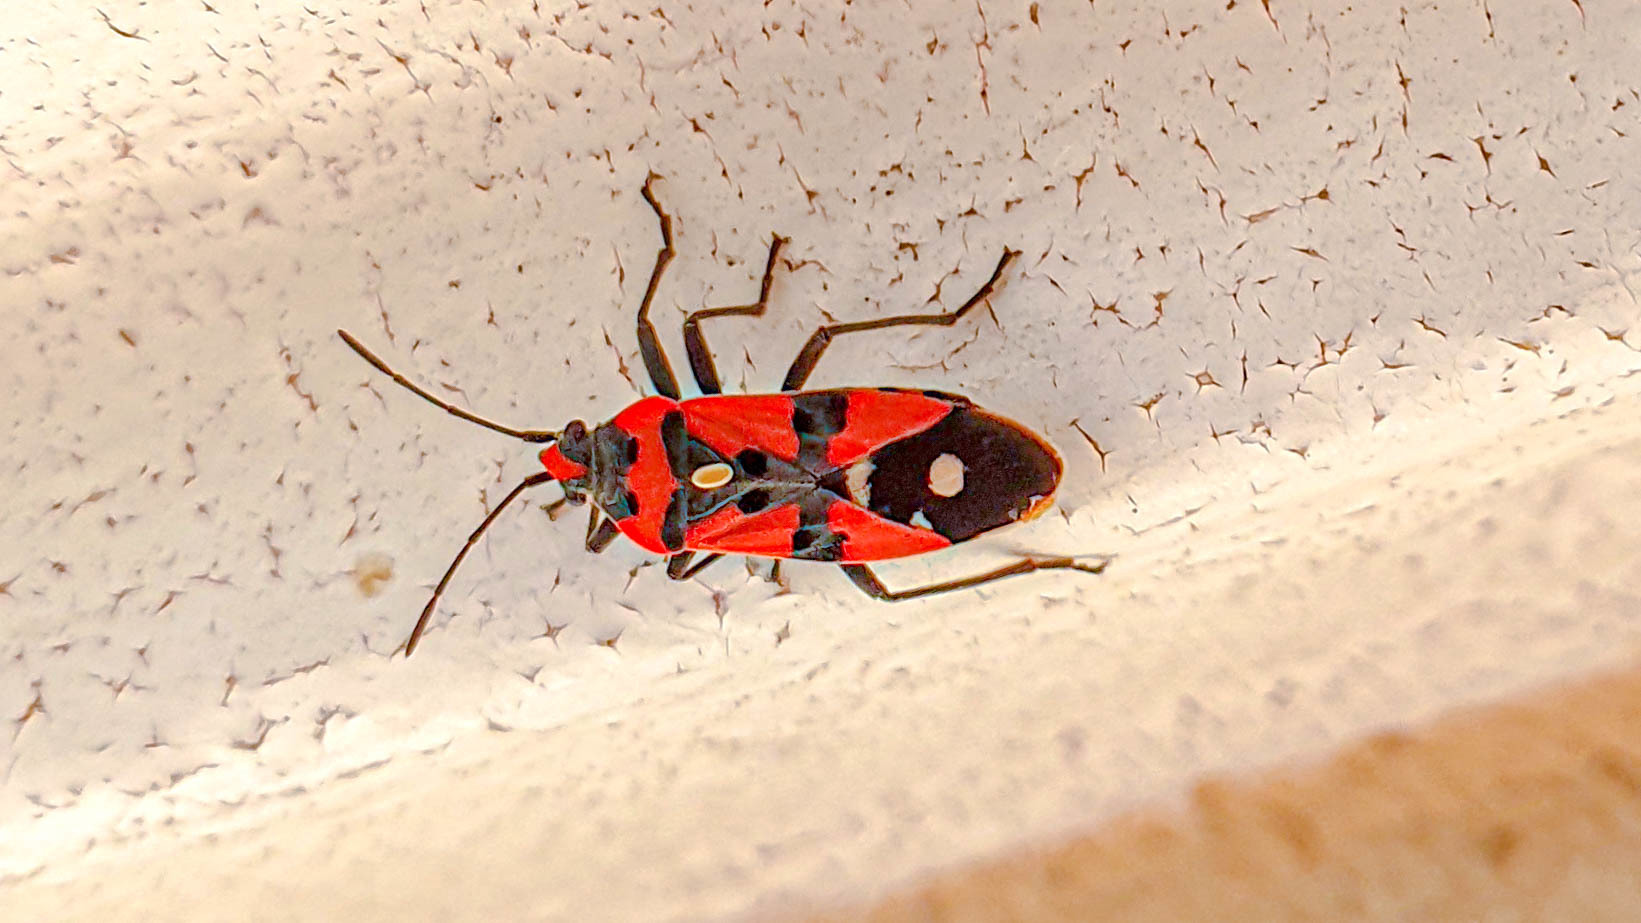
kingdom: Animalia
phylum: Arthropoda
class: Insecta
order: Hemiptera
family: Lygaeidae
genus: Lygaeus
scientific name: Lygaeus equestris
